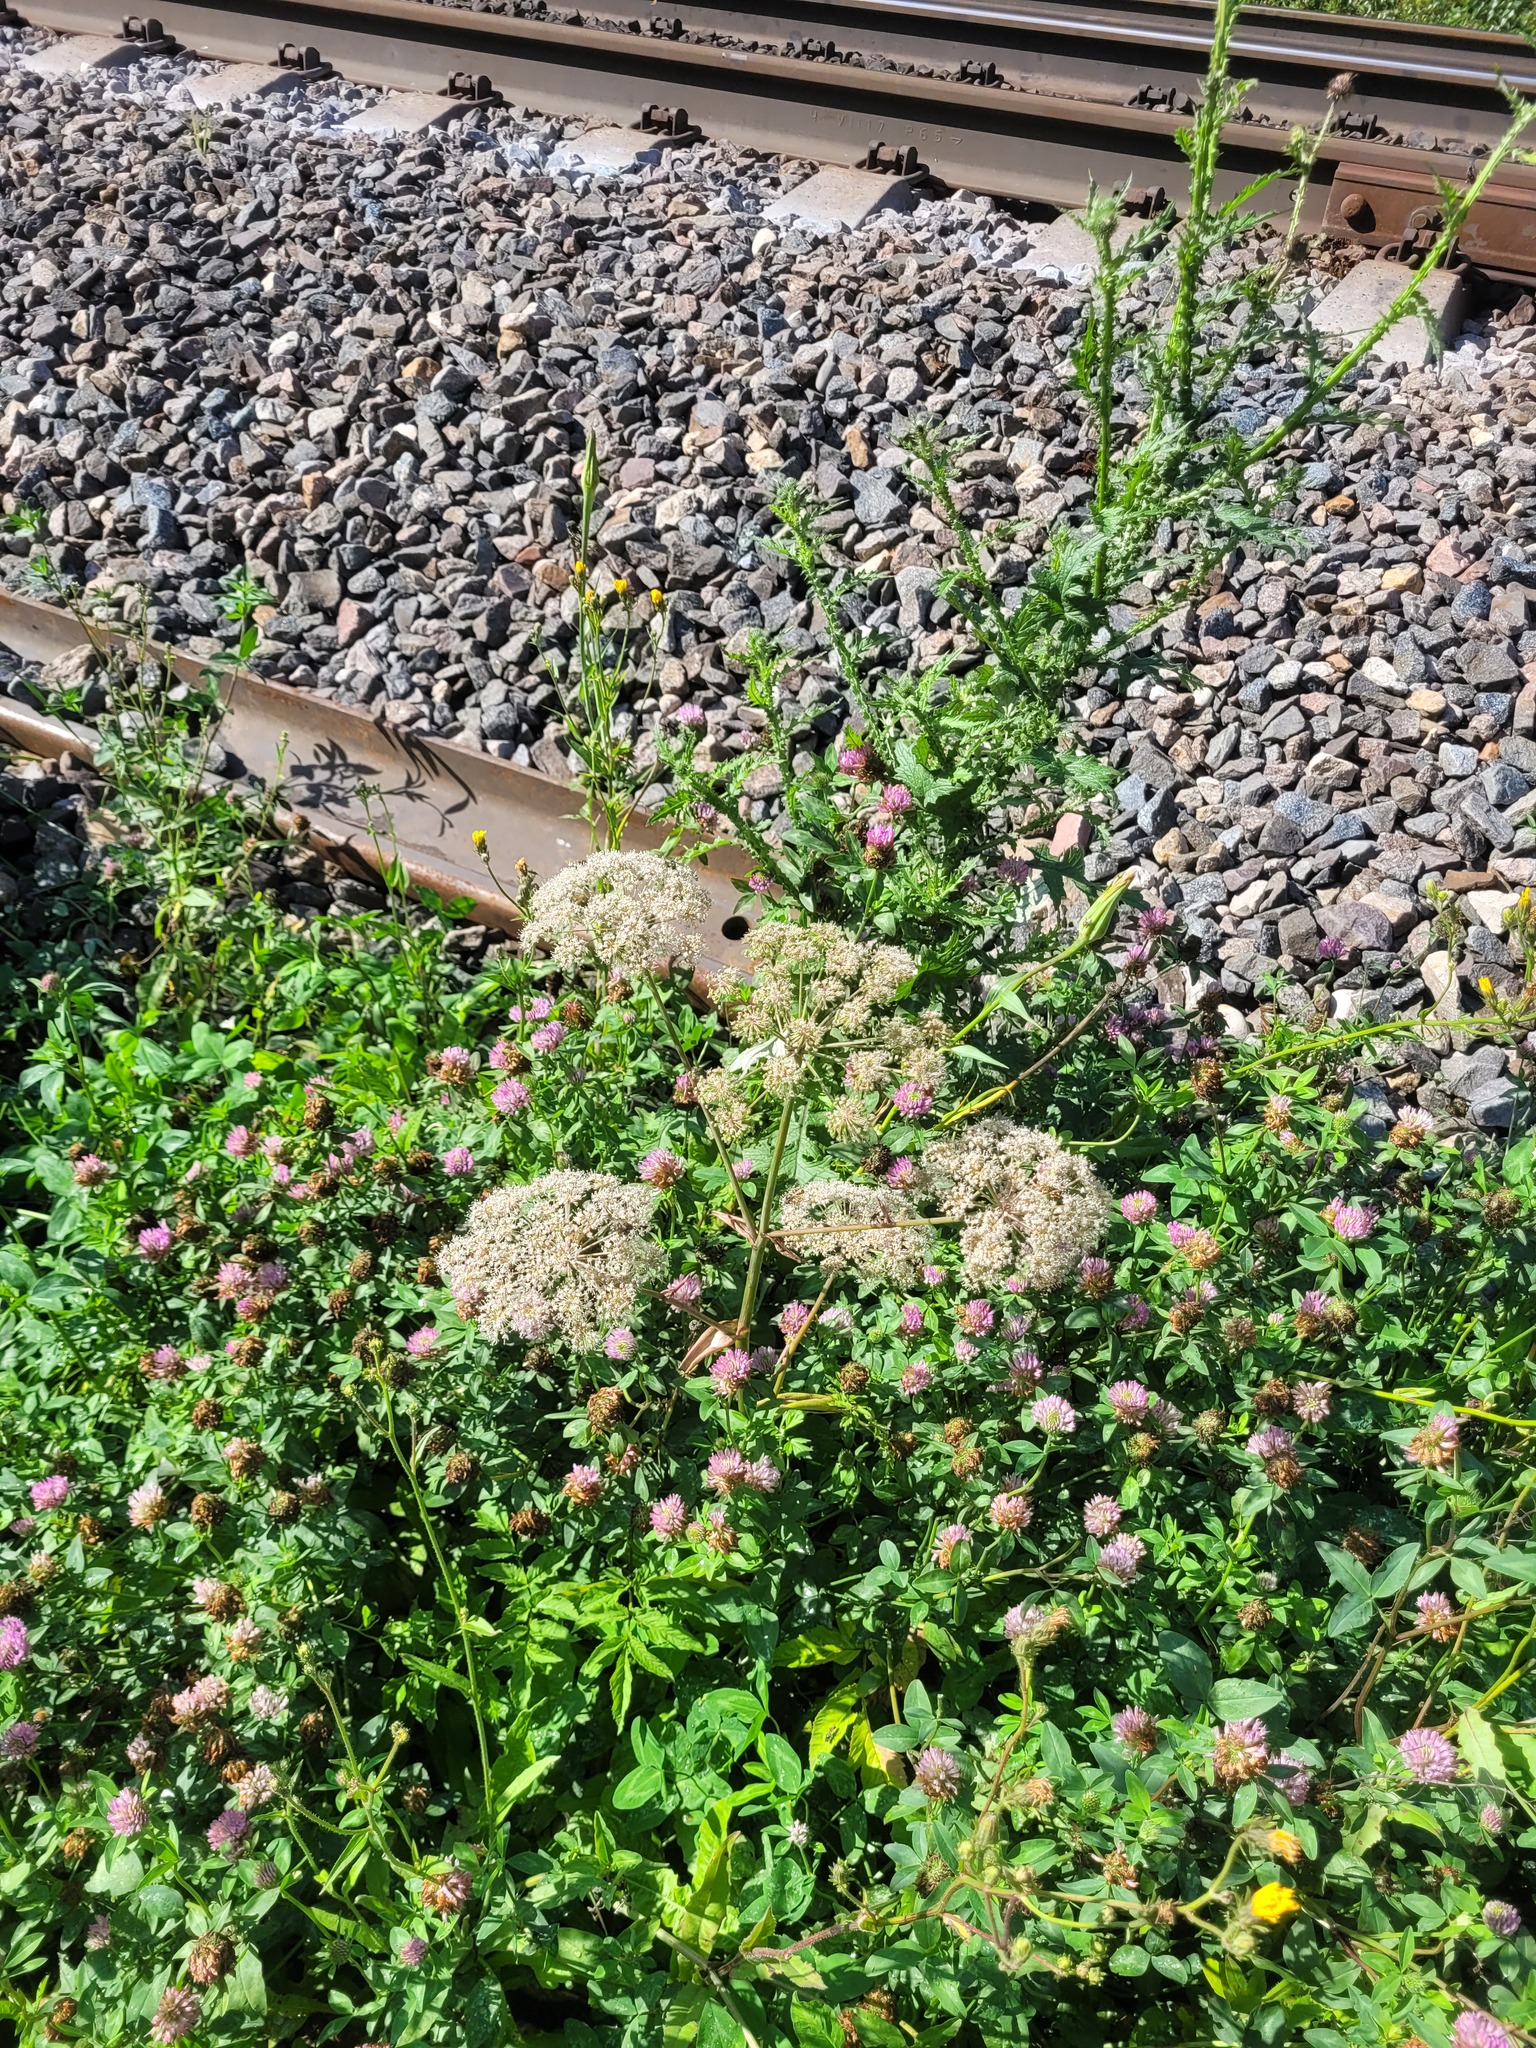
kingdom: Plantae
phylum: Tracheophyta
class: Magnoliopsida
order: Apiales
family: Apiaceae
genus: Angelica
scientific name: Angelica sylvestris
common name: Wild angelica
